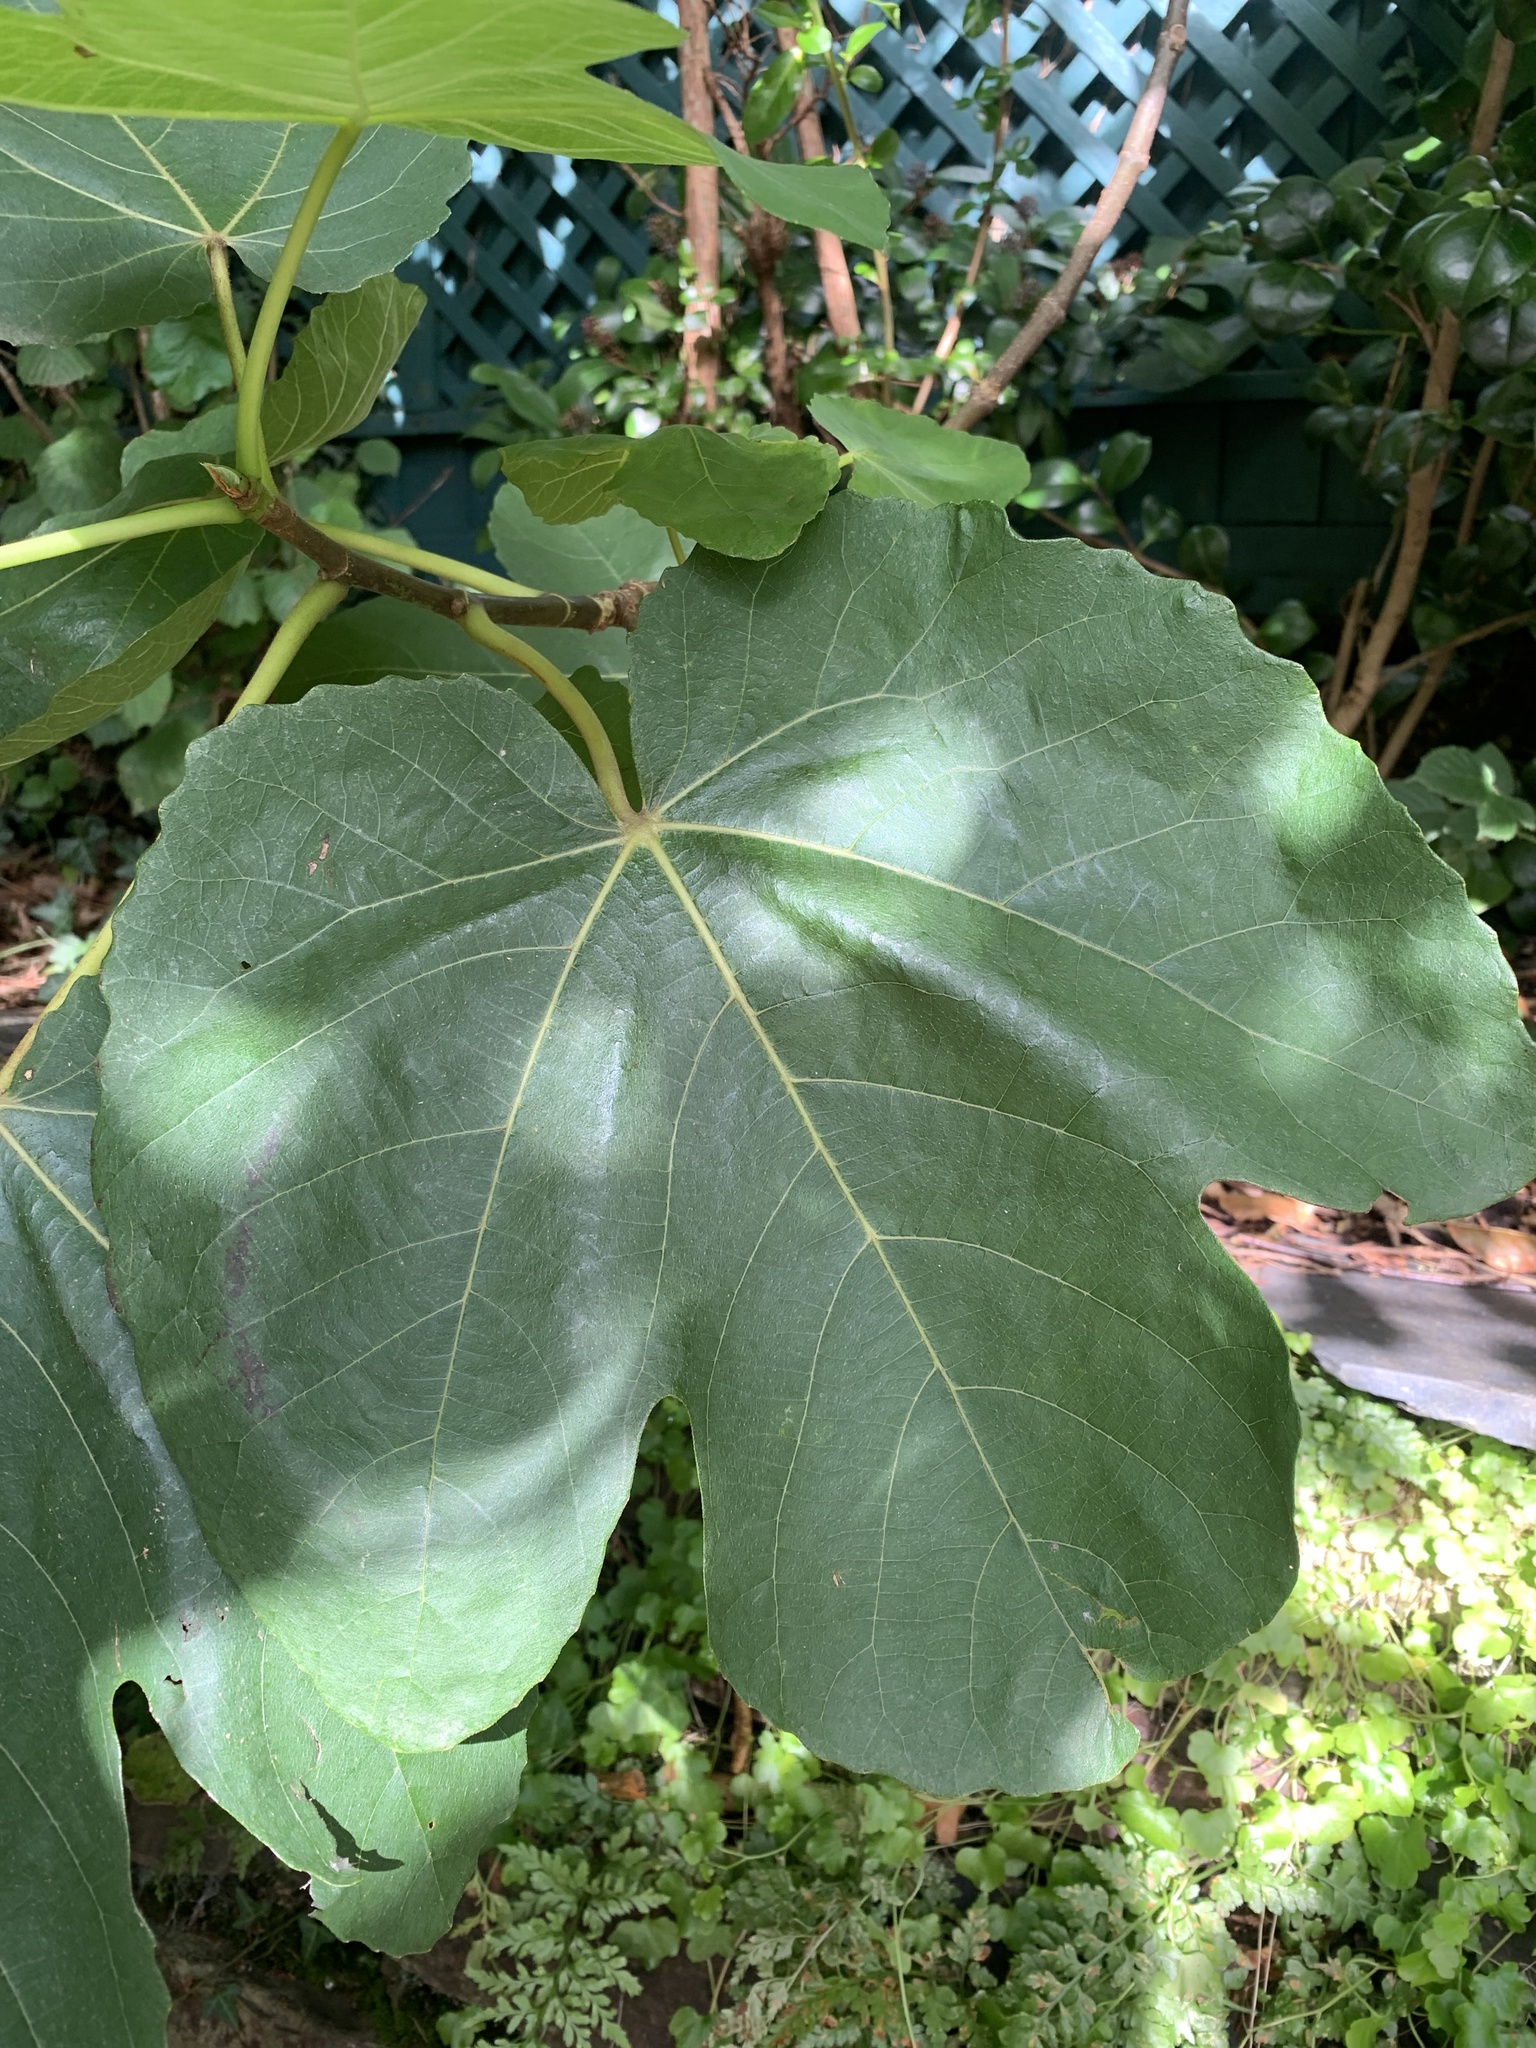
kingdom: Plantae
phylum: Tracheophyta
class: Magnoliopsida
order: Rosales
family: Moraceae
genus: Ficus
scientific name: Ficus carica
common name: Fig
